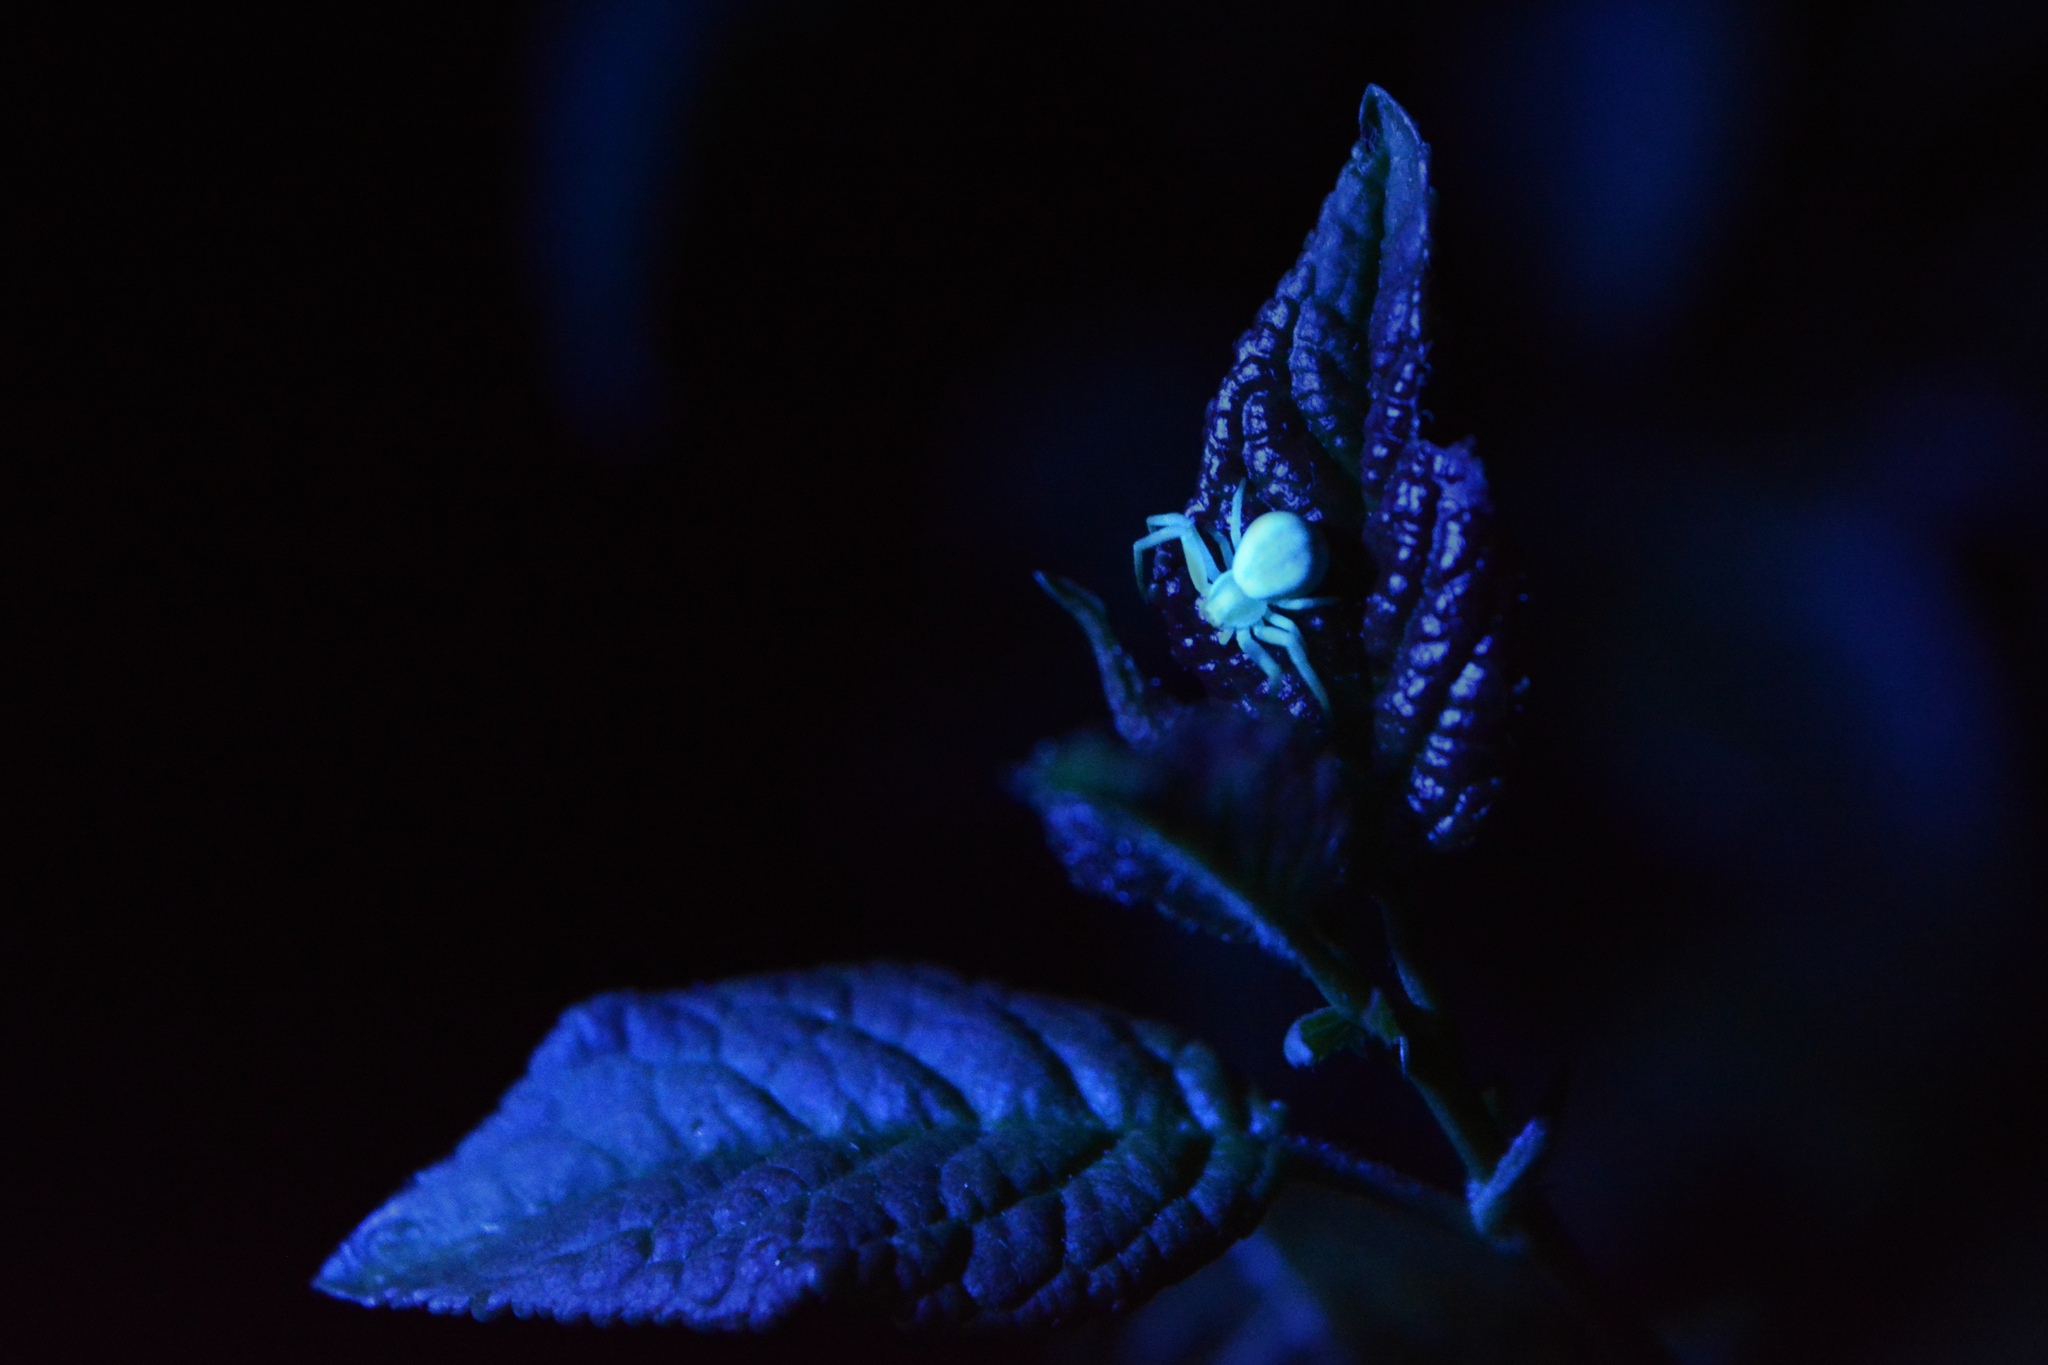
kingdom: Animalia
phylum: Arthropoda
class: Arachnida
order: Araneae
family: Thomisidae
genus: Misumena
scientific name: Misumena vatia
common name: Goldenrod crab spider
